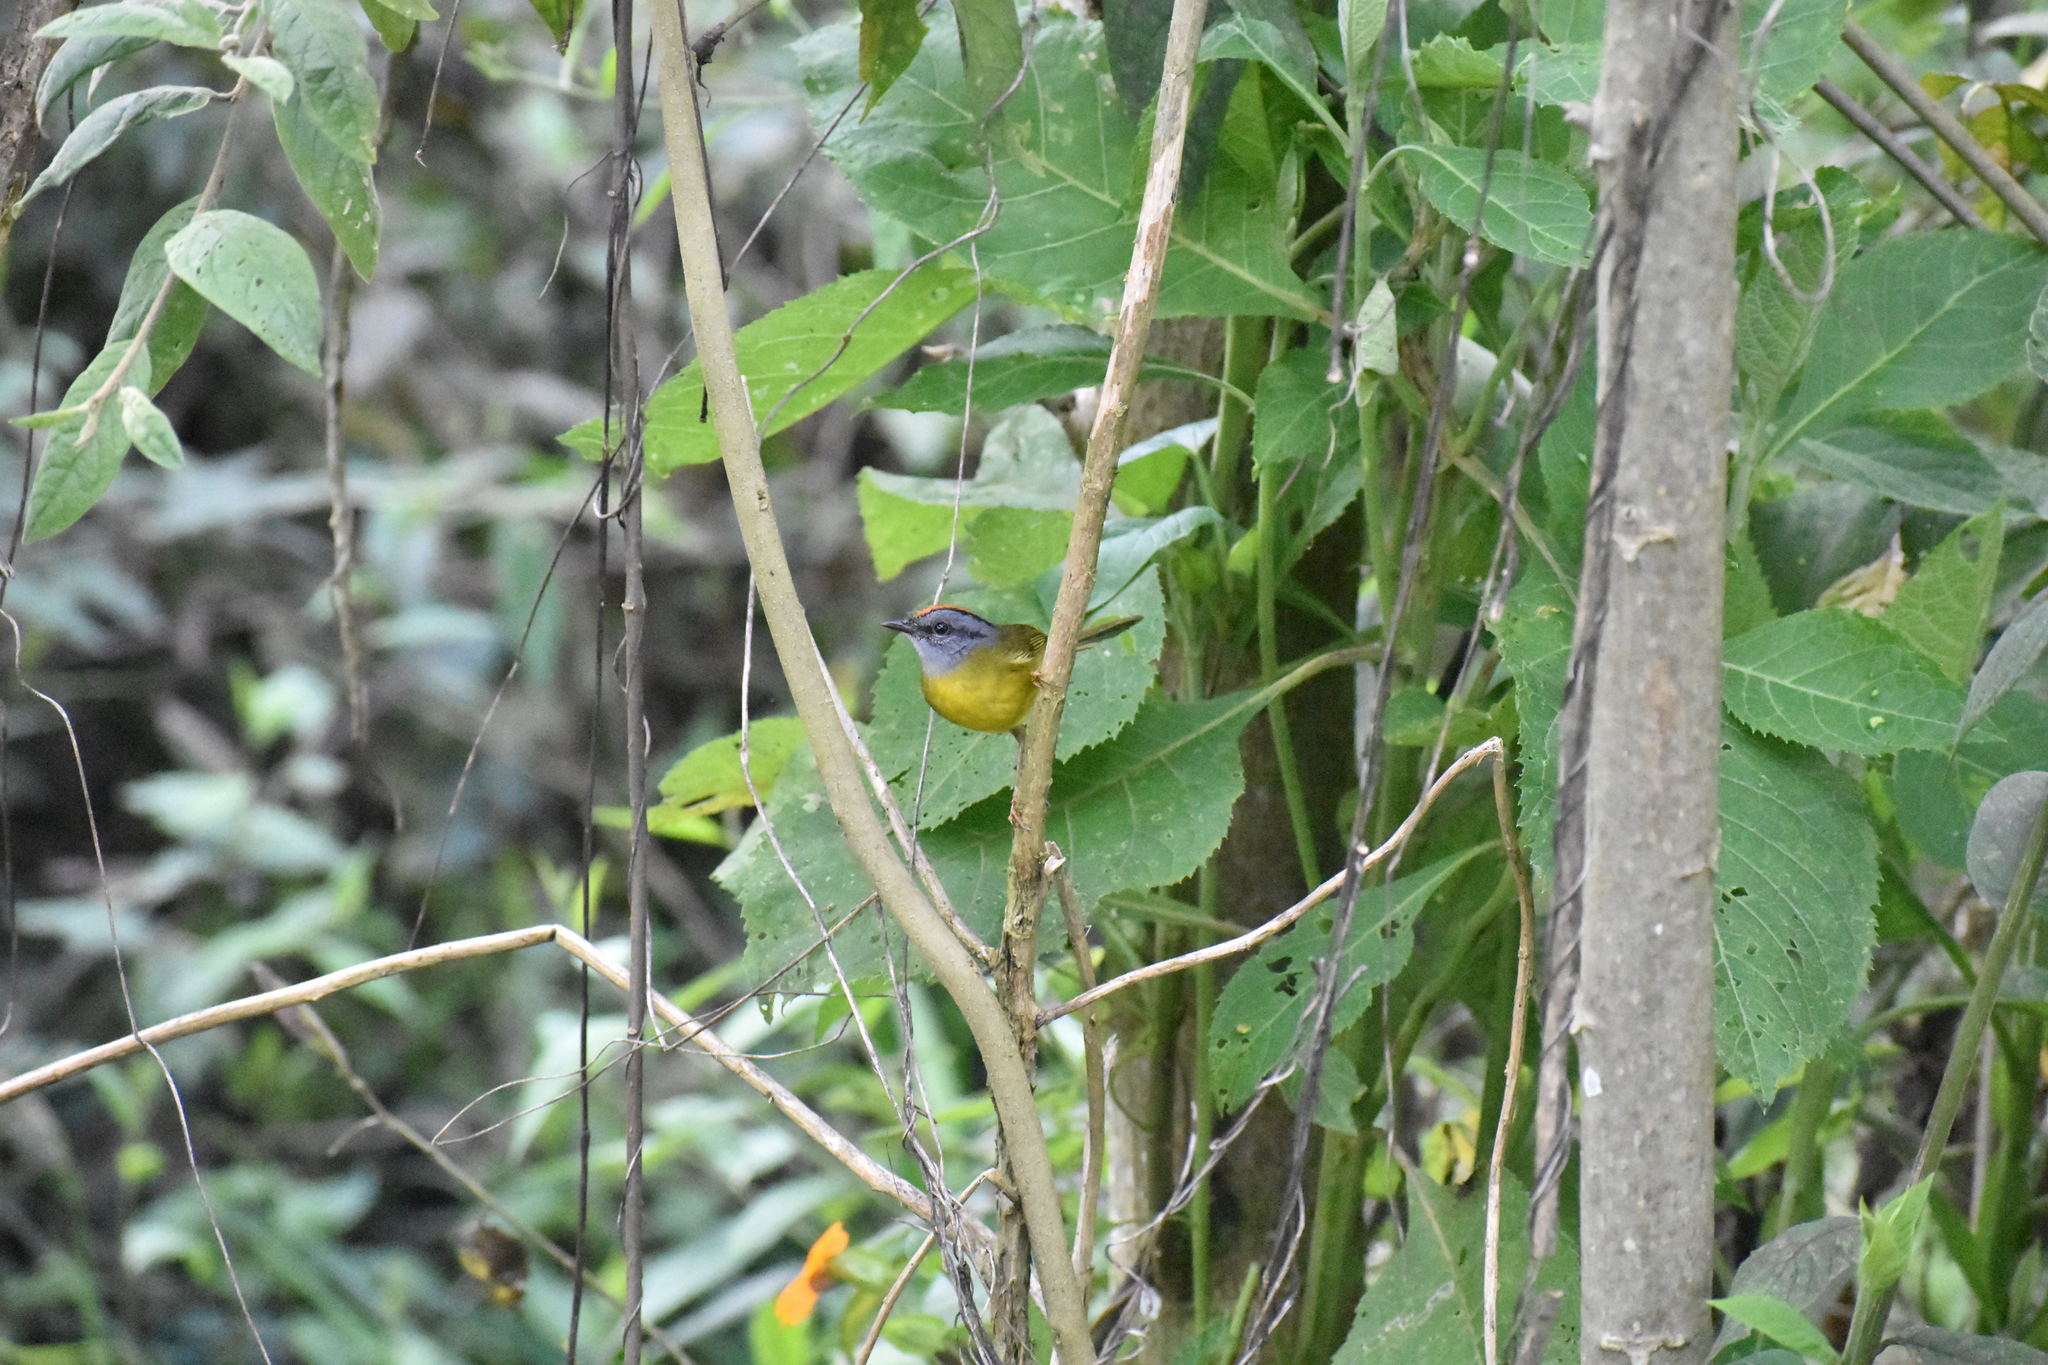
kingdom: Animalia
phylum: Chordata
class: Aves
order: Passeriformes
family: Parulidae
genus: Myiothlypis
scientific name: Myiothlypis coronata
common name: Russet-crowned warbler
